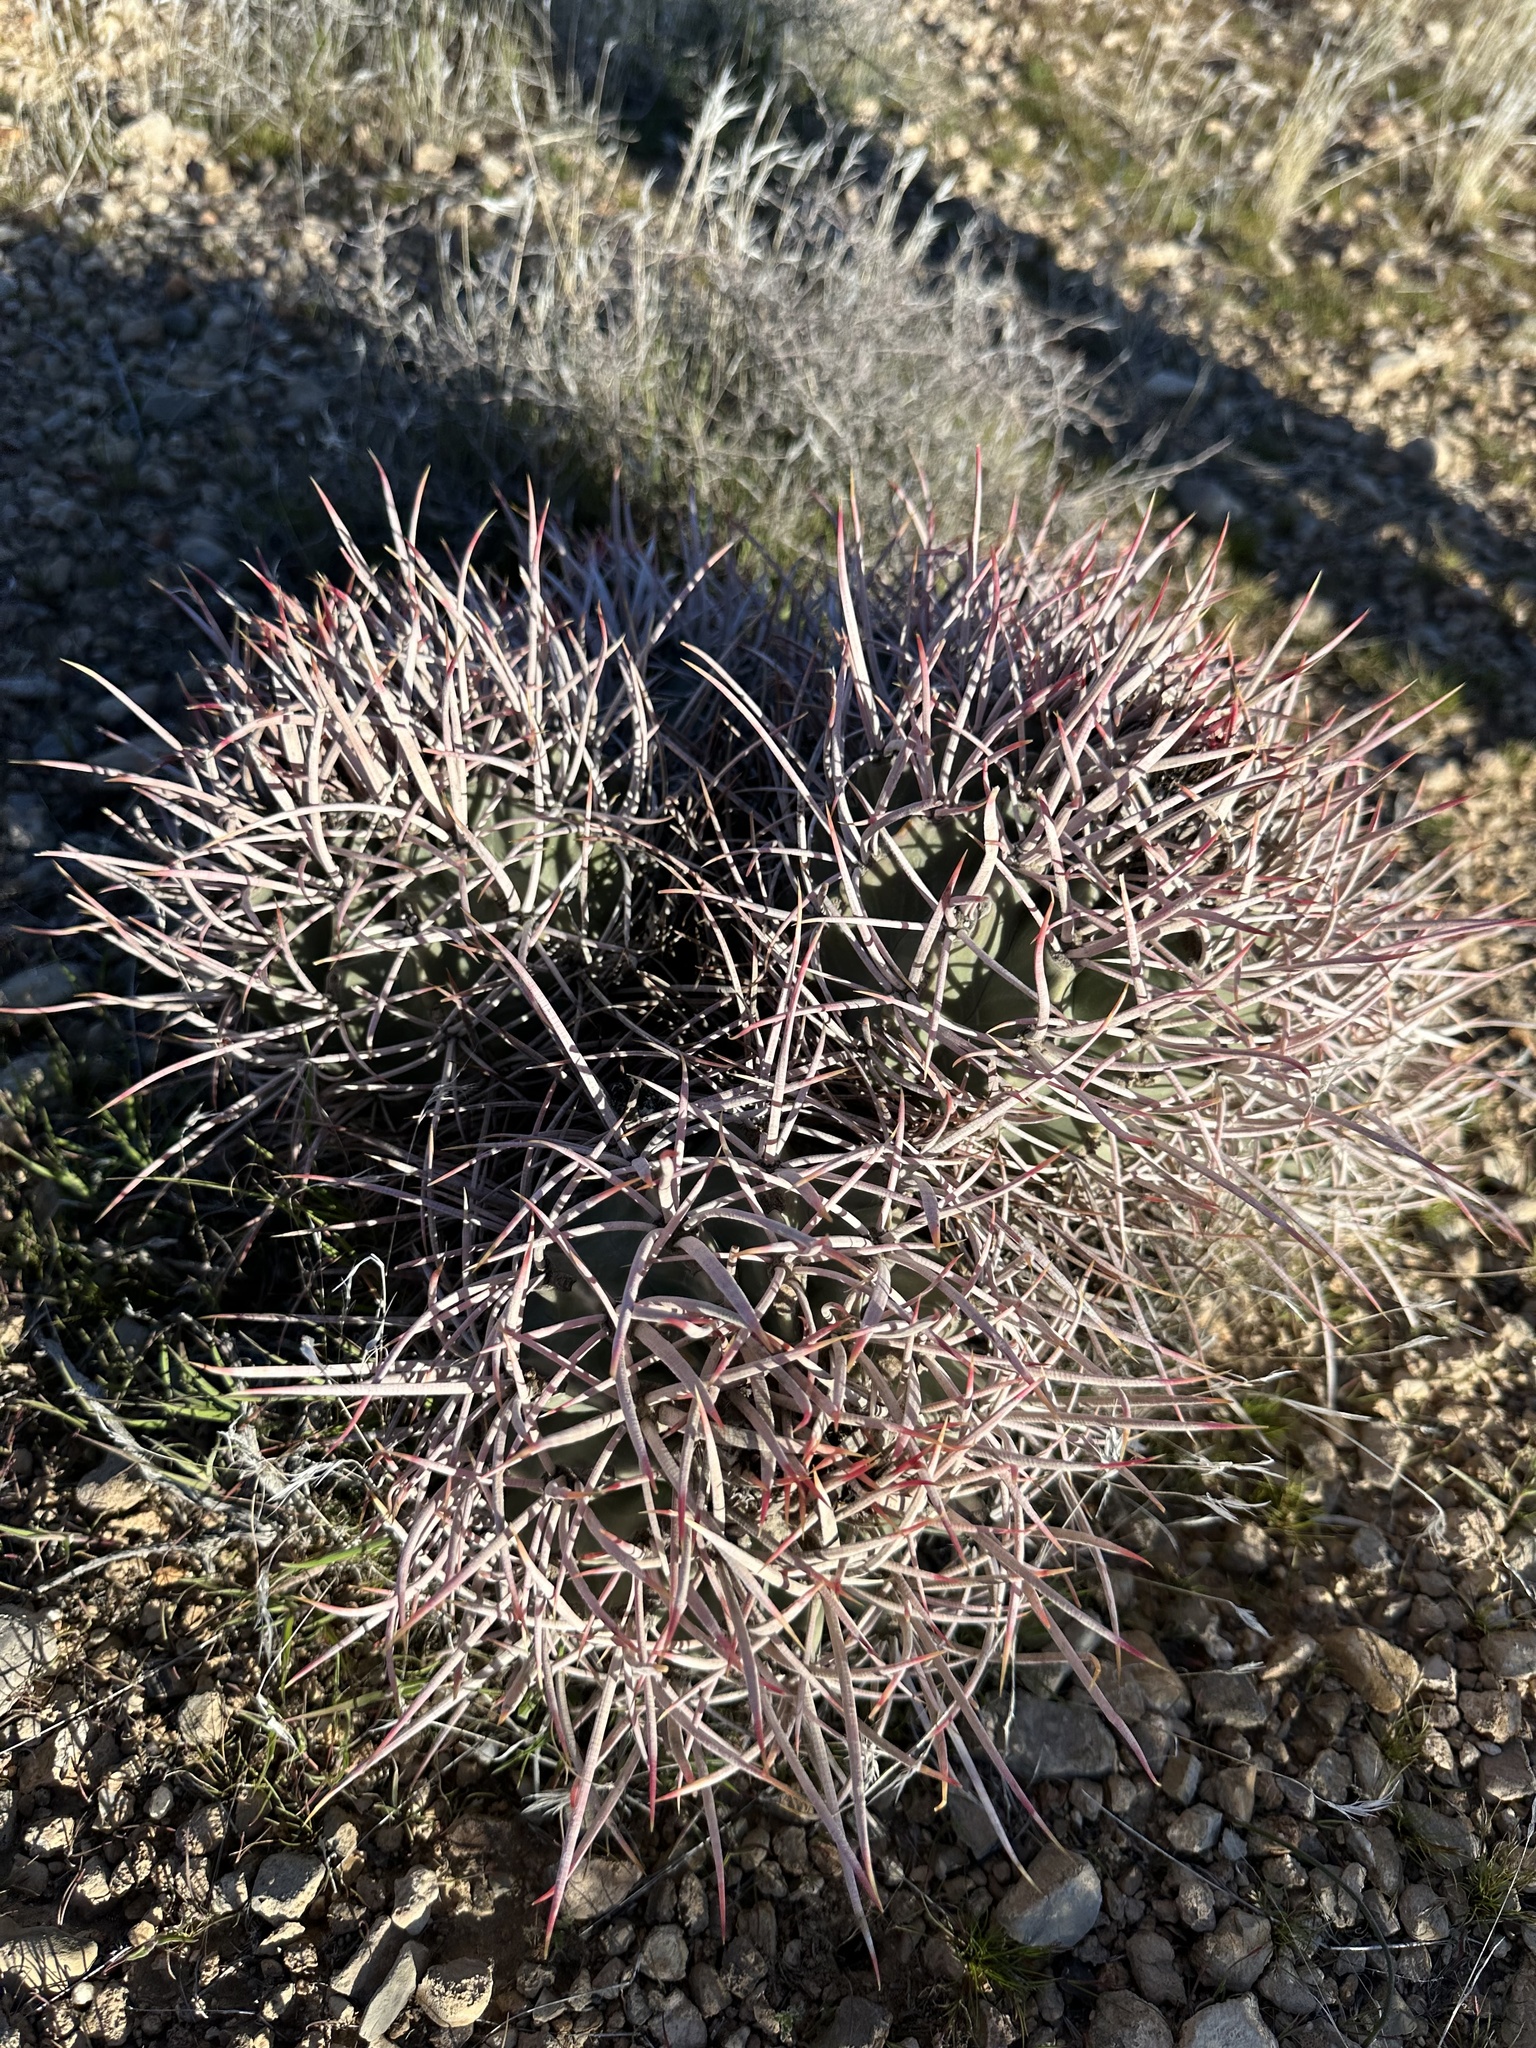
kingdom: Plantae
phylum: Tracheophyta
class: Magnoliopsida
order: Caryophyllales
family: Cactaceae
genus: Echinocactus
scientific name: Echinocactus polycephalus
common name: Cottontop cactus
